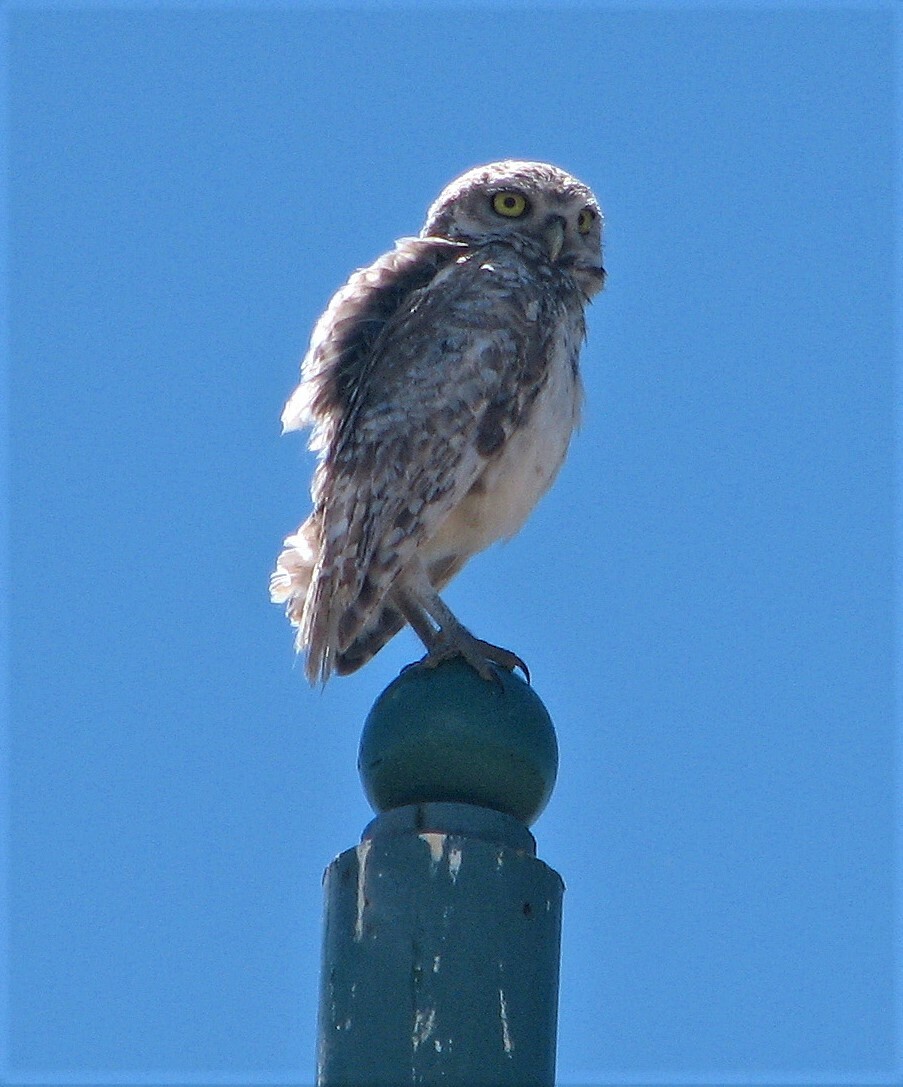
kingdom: Animalia
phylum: Chordata
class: Aves
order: Strigiformes
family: Strigidae
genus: Athene
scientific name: Athene cunicularia
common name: Burrowing owl
